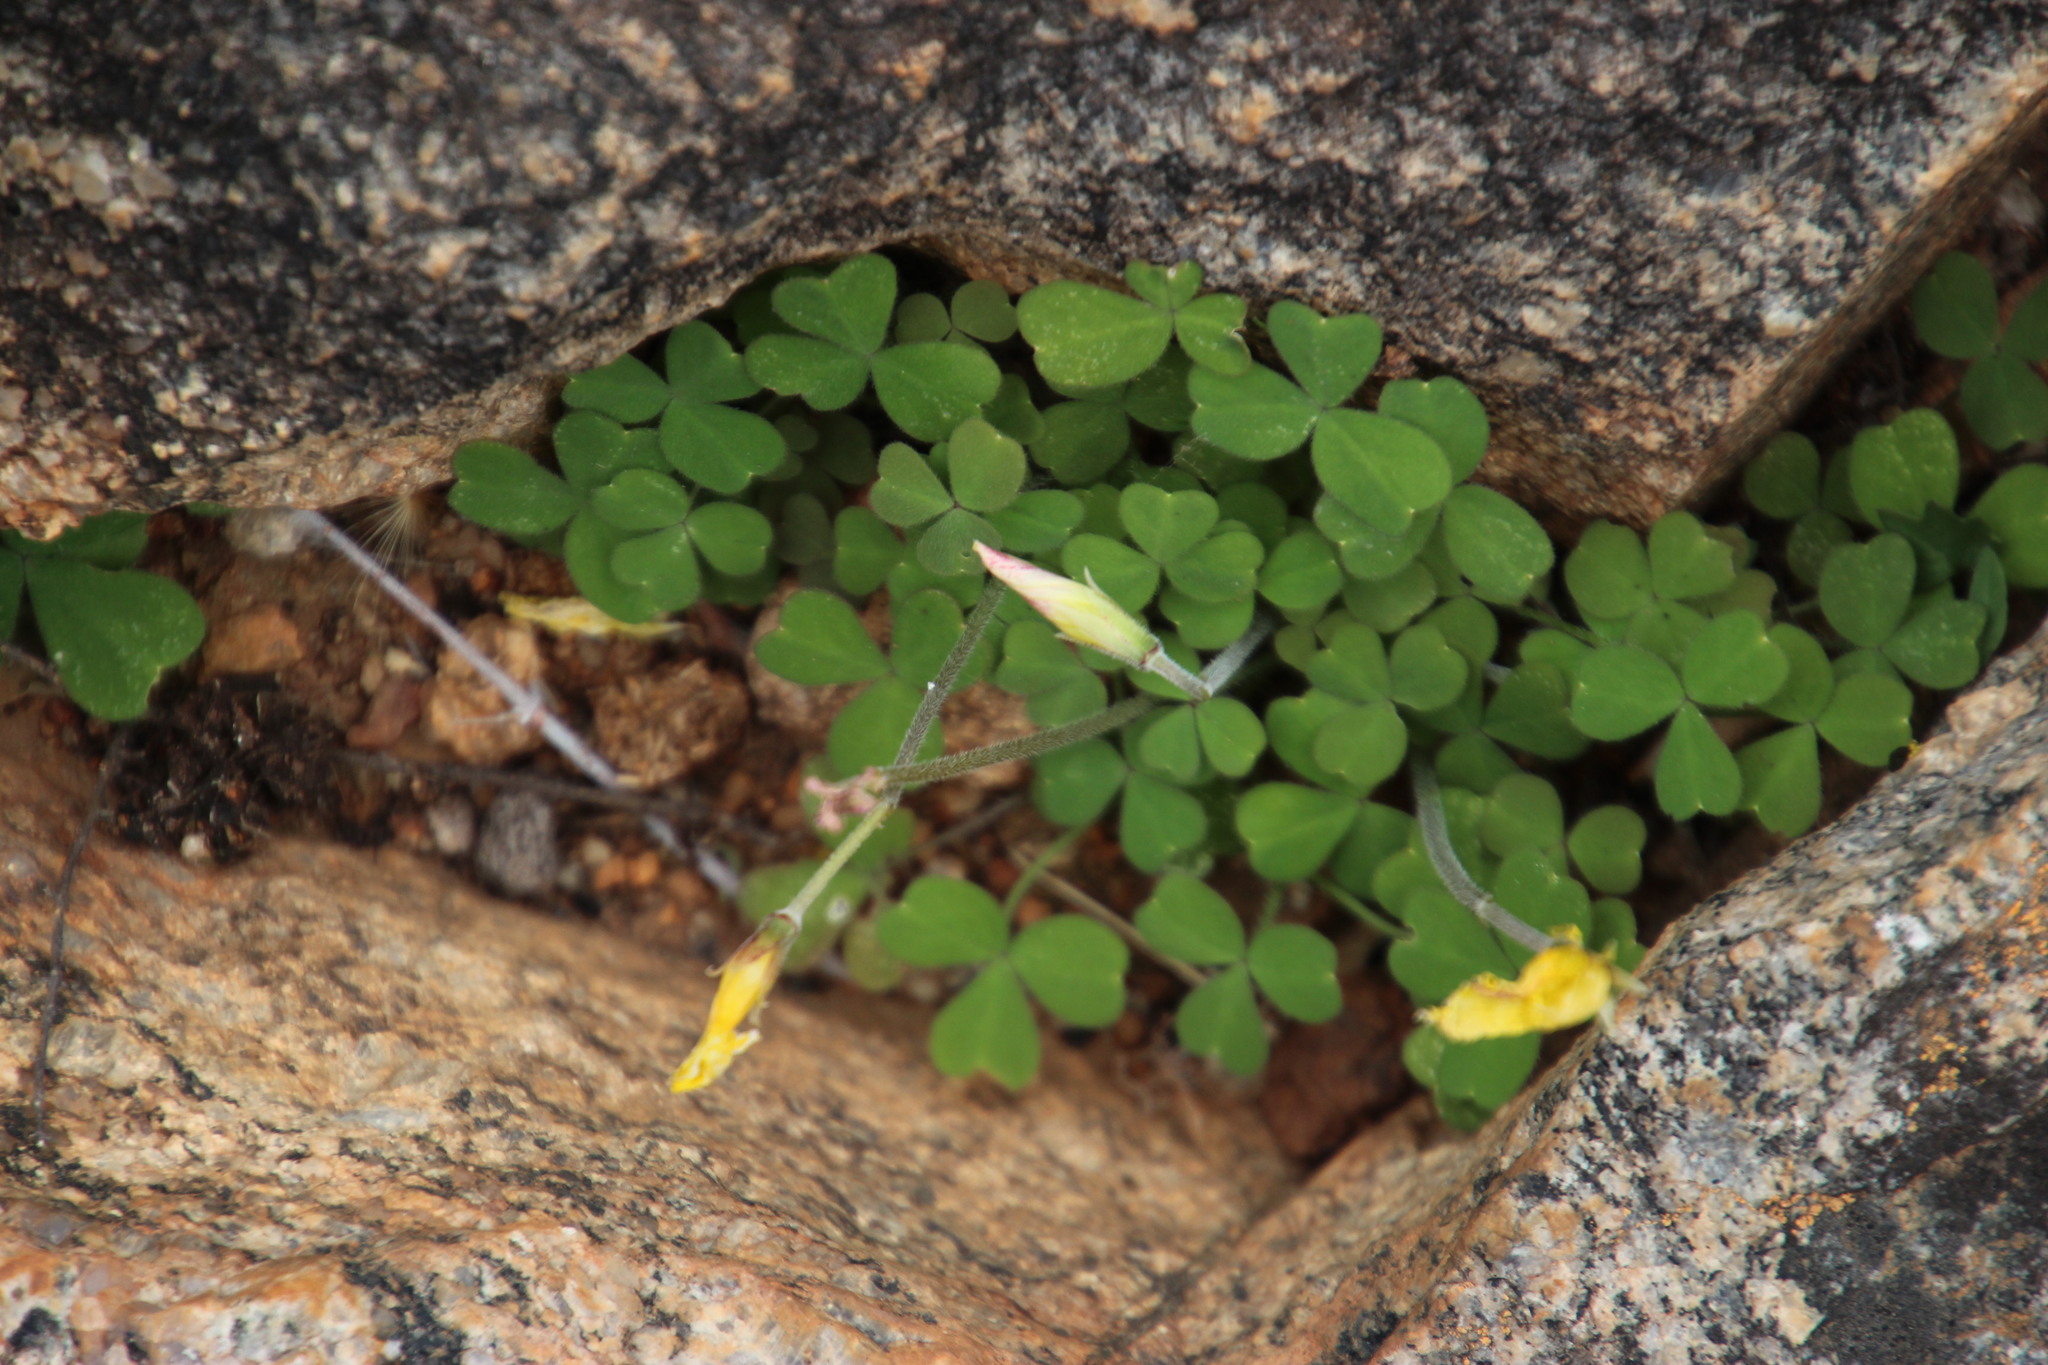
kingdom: Plantae
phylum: Tracheophyta
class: Magnoliopsida
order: Oxalidales
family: Oxalidaceae
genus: Oxalis
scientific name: Oxalis obtusa
